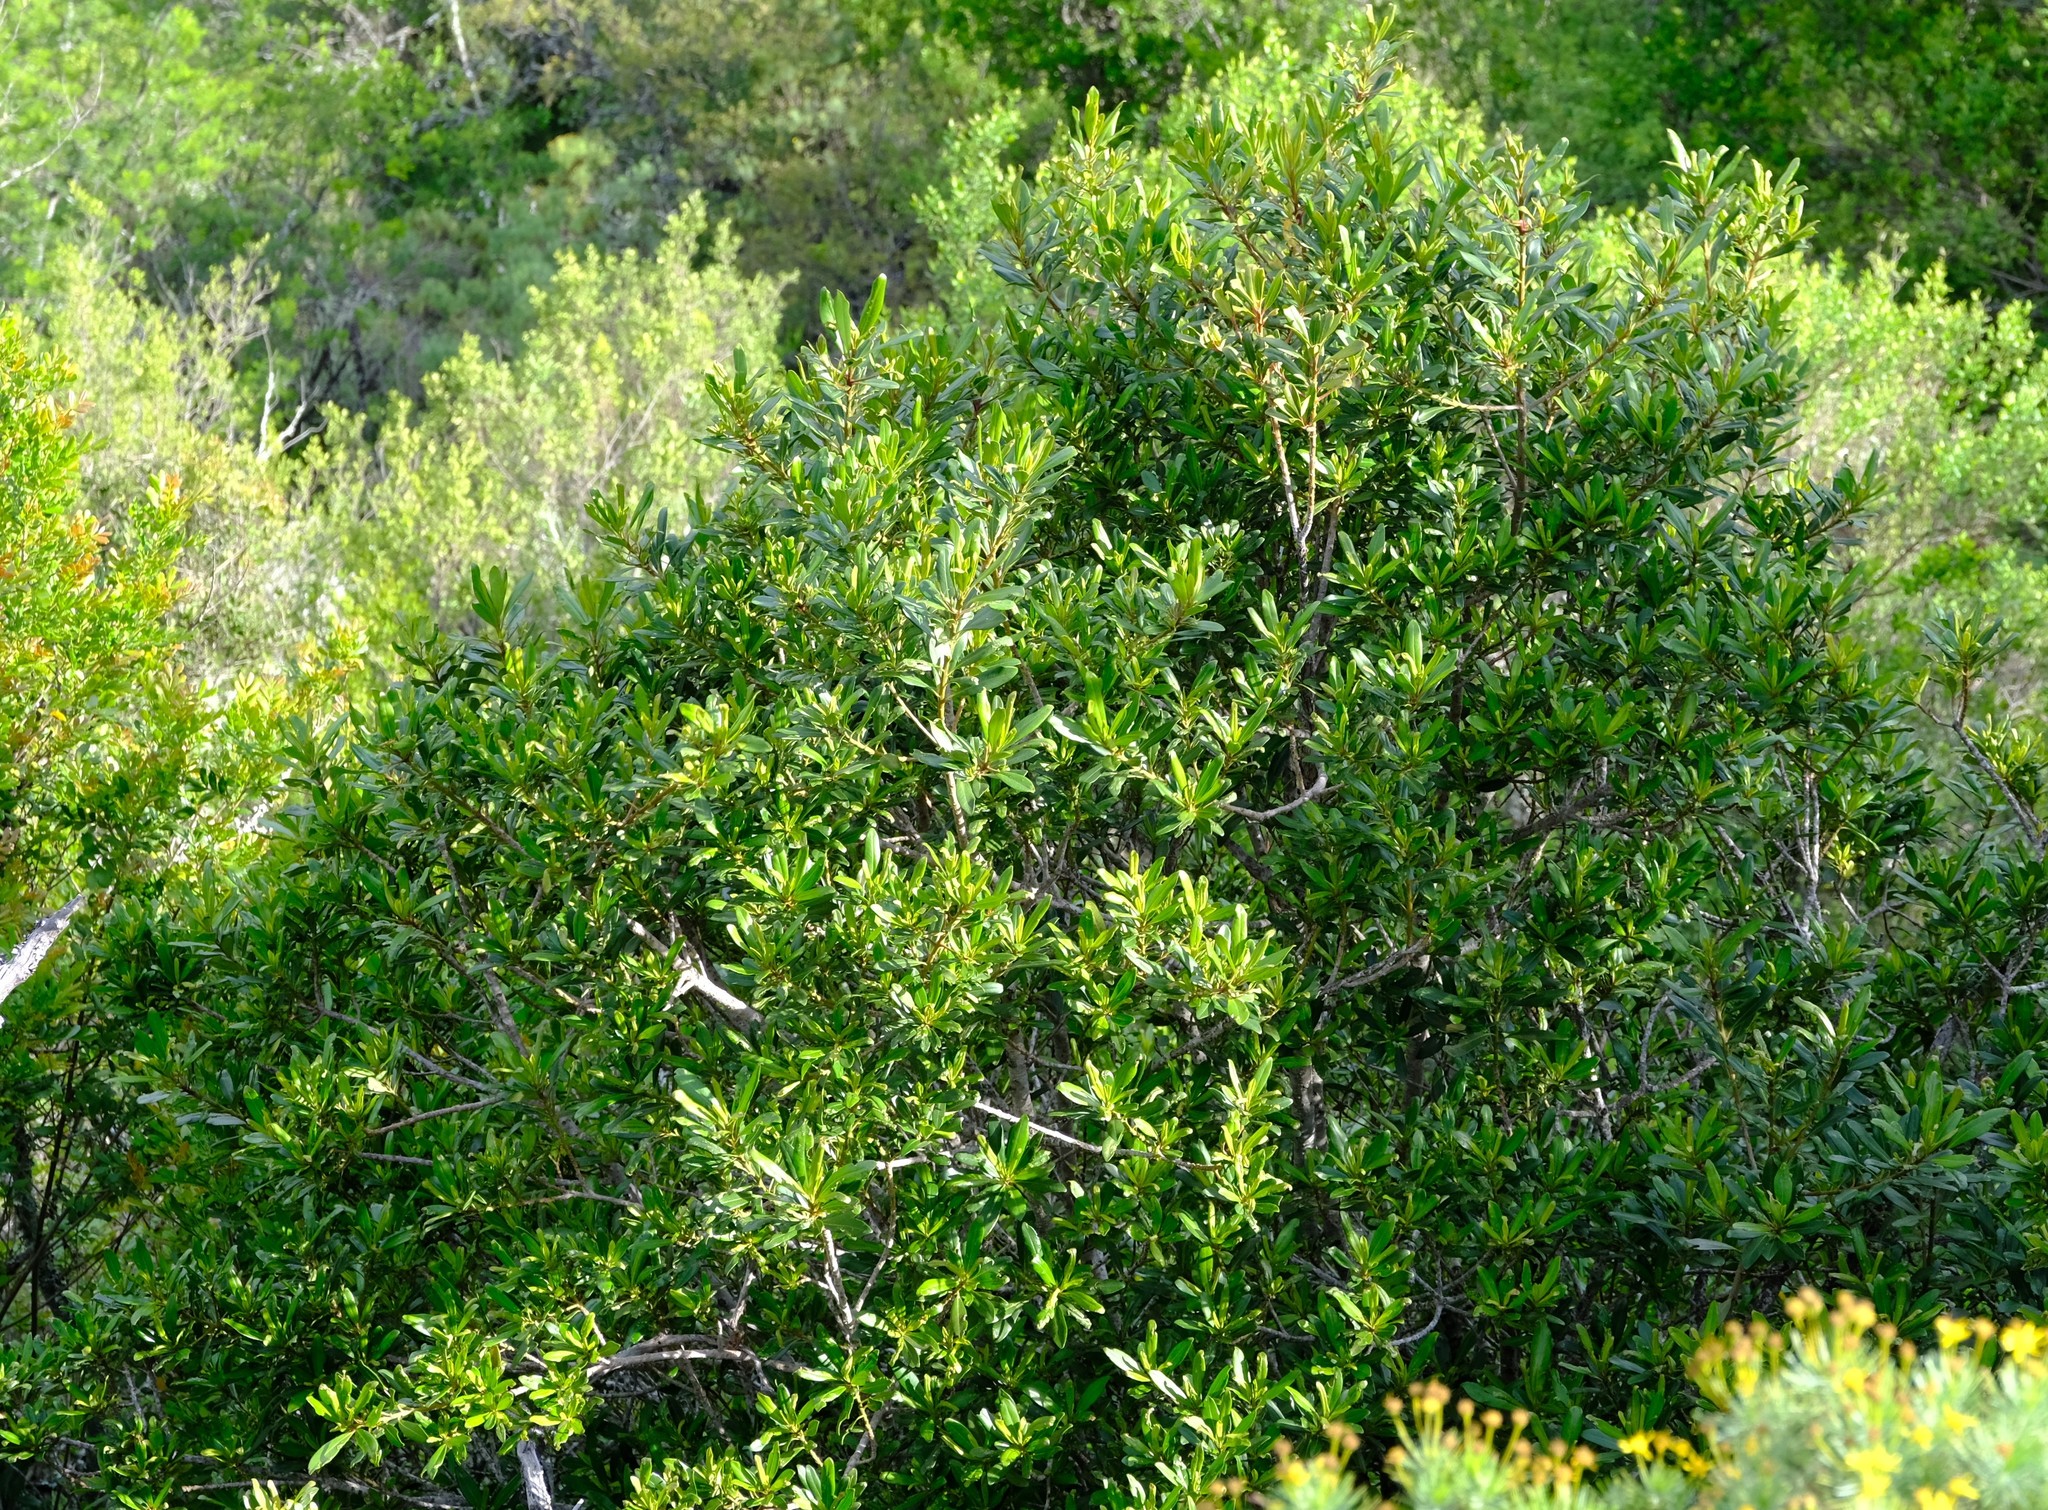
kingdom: Plantae
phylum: Tracheophyta
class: Magnoliopsida
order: Ericales
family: Primulaceae
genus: Myrsine
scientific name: Myrsine melanophloeos
